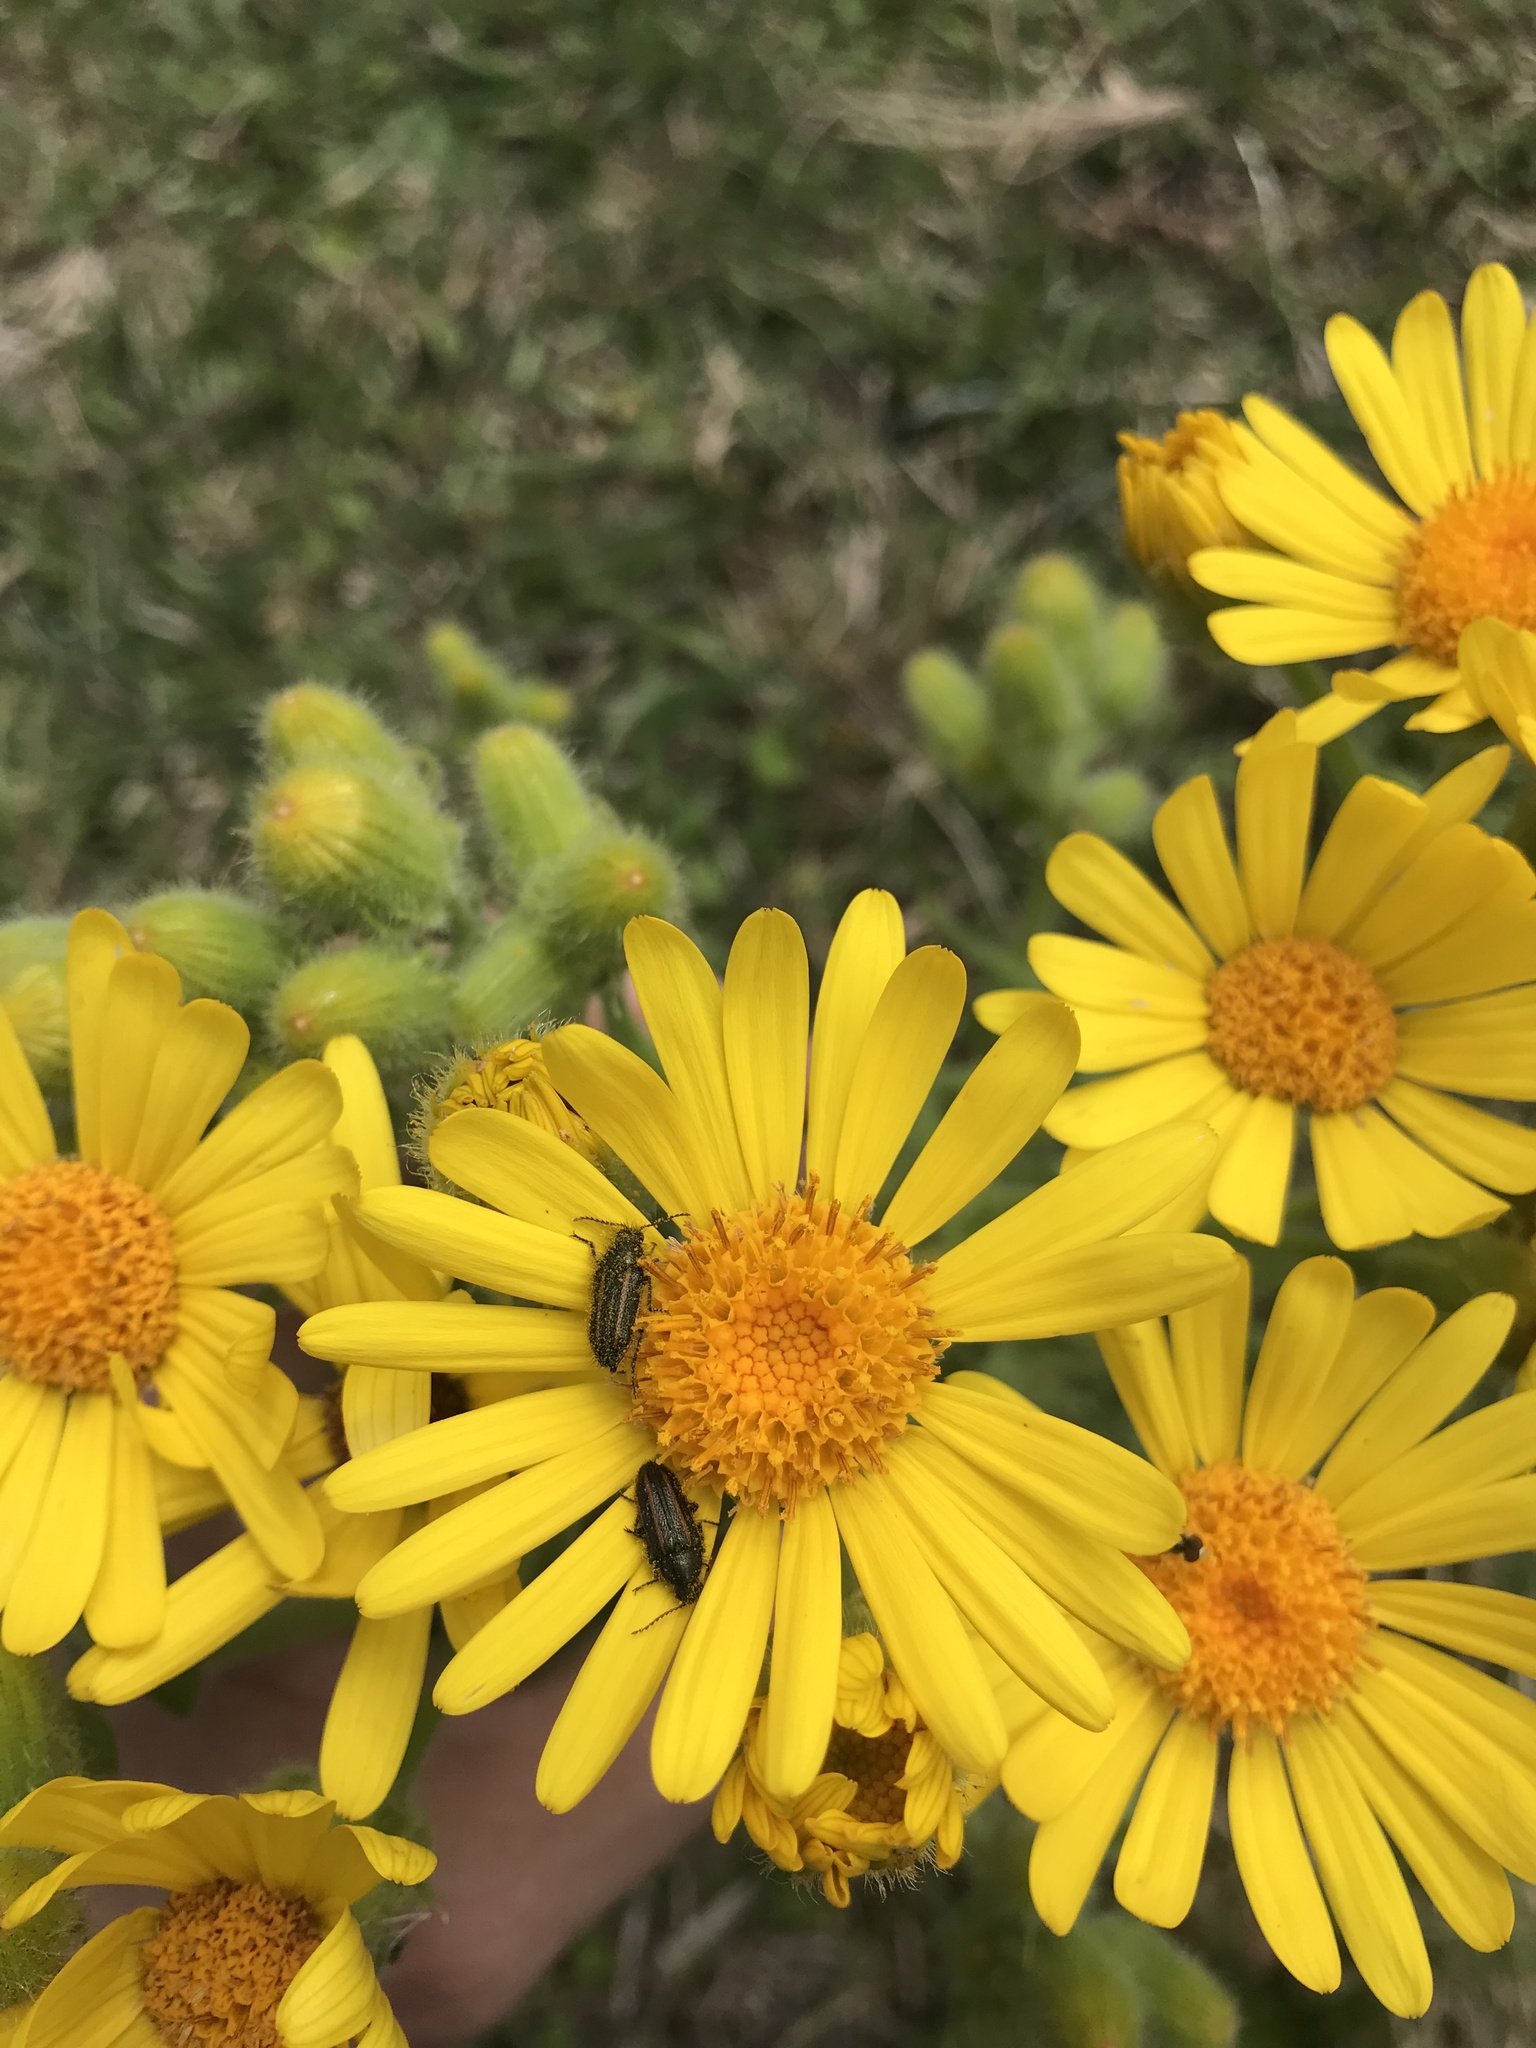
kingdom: Animalia
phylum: Arthropoda
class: Insecta
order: Coleoptera
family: Melyridae
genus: Astylus
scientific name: Astylus
